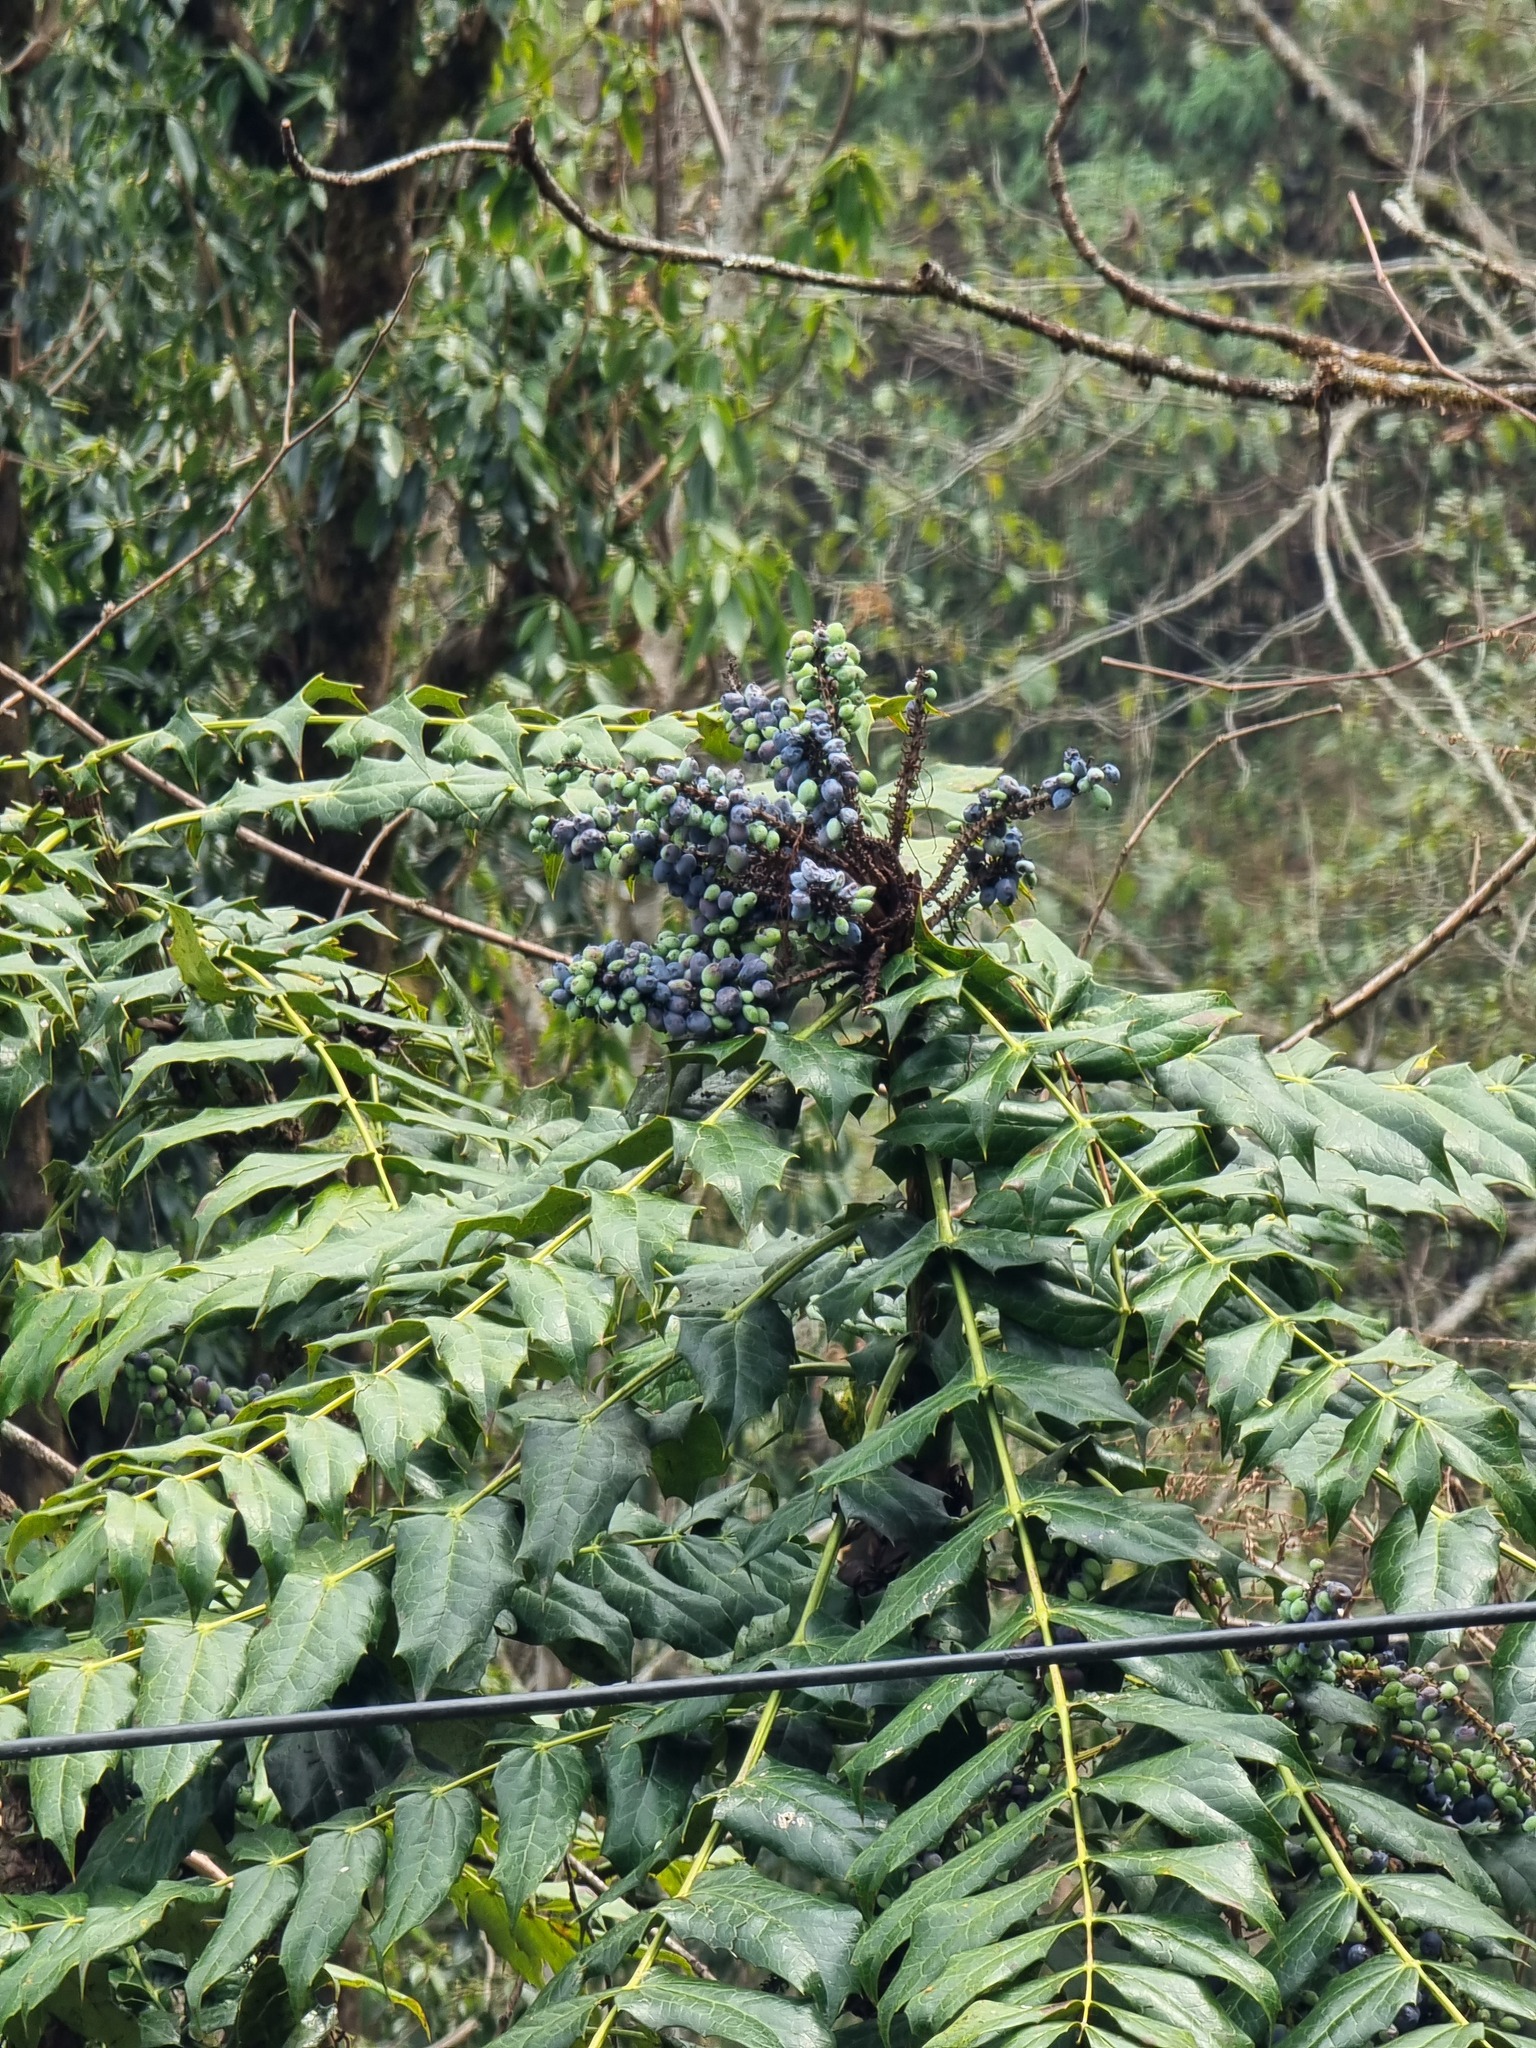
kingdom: Plantae
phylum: Tracheophyta
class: Magnoliopsida
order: Ranunculales
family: Berberidaceae
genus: Mahonia
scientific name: Mahonia napaulensis
